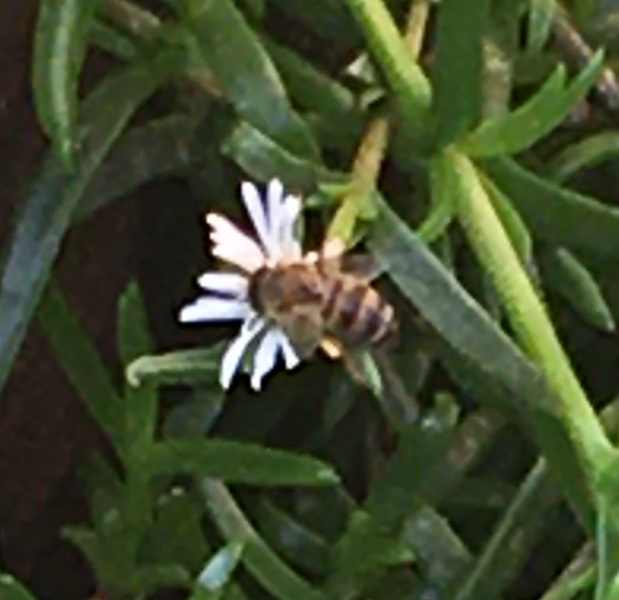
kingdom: Animalia
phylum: Arthropoda
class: Insecta
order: Hymenoptera
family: Apidae
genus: Apis
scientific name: Apis mellifera
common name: Honey bee
